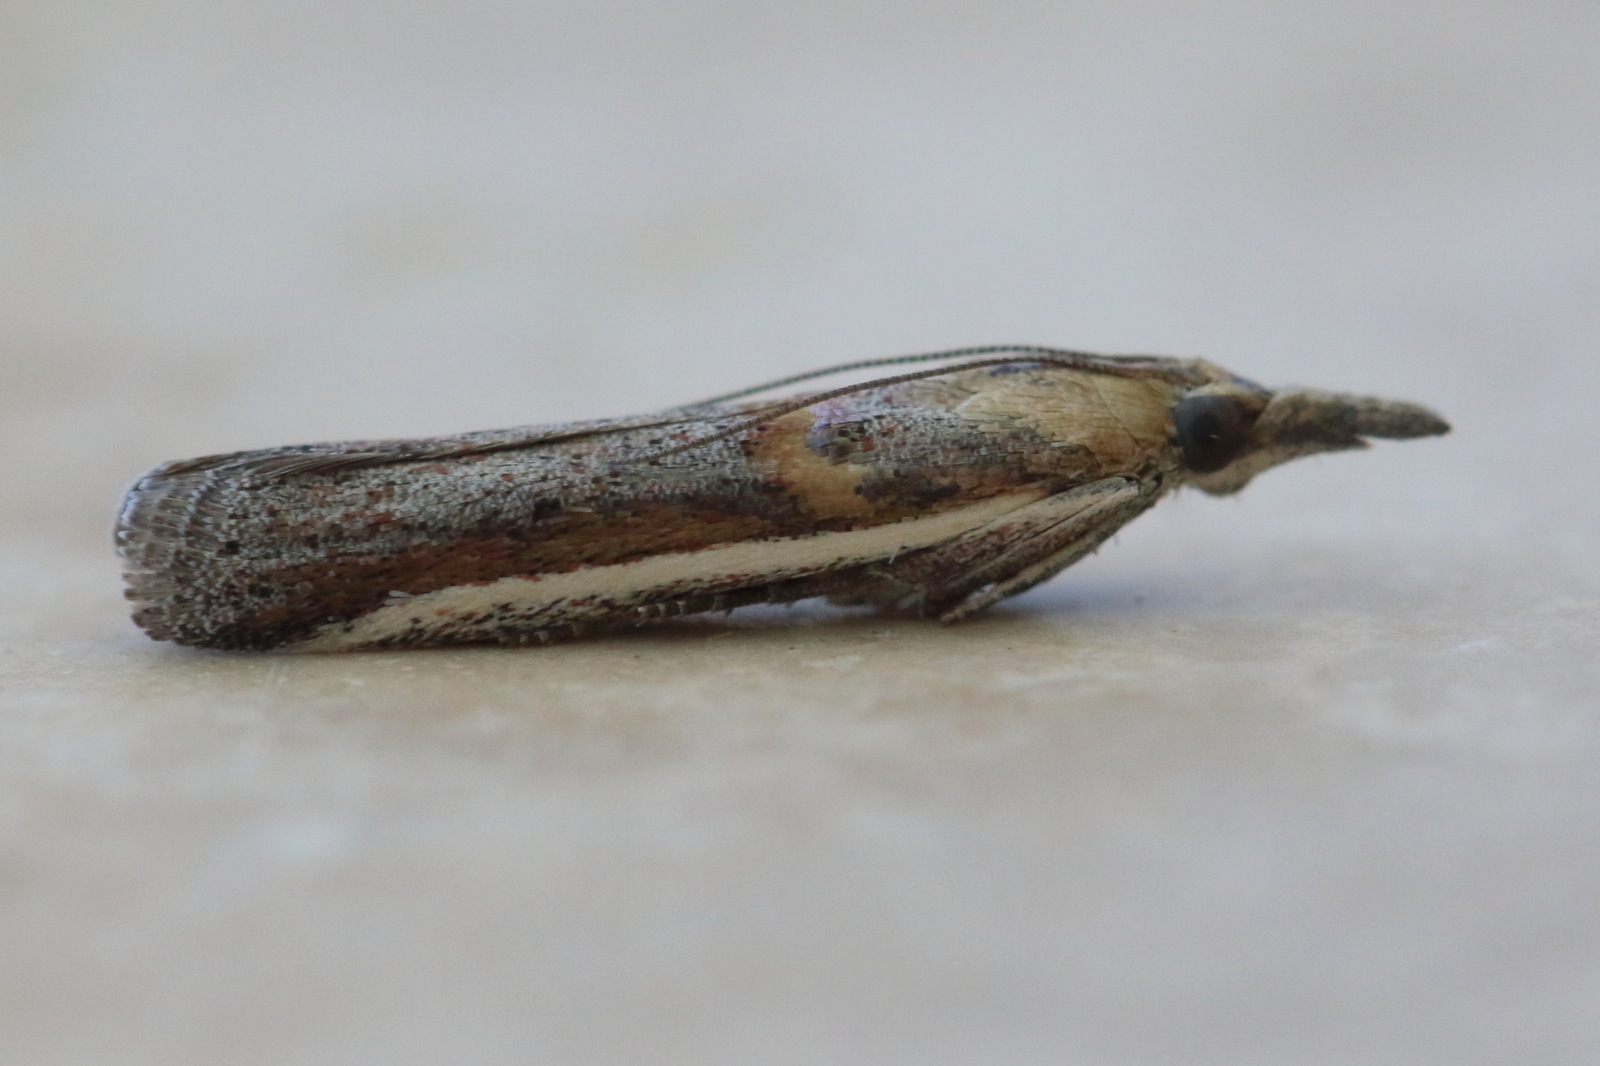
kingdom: Animalia
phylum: Arthropoda
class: Insecta
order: Lepidoptera
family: Pyralidae
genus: Etiella
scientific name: Etiella behrii
